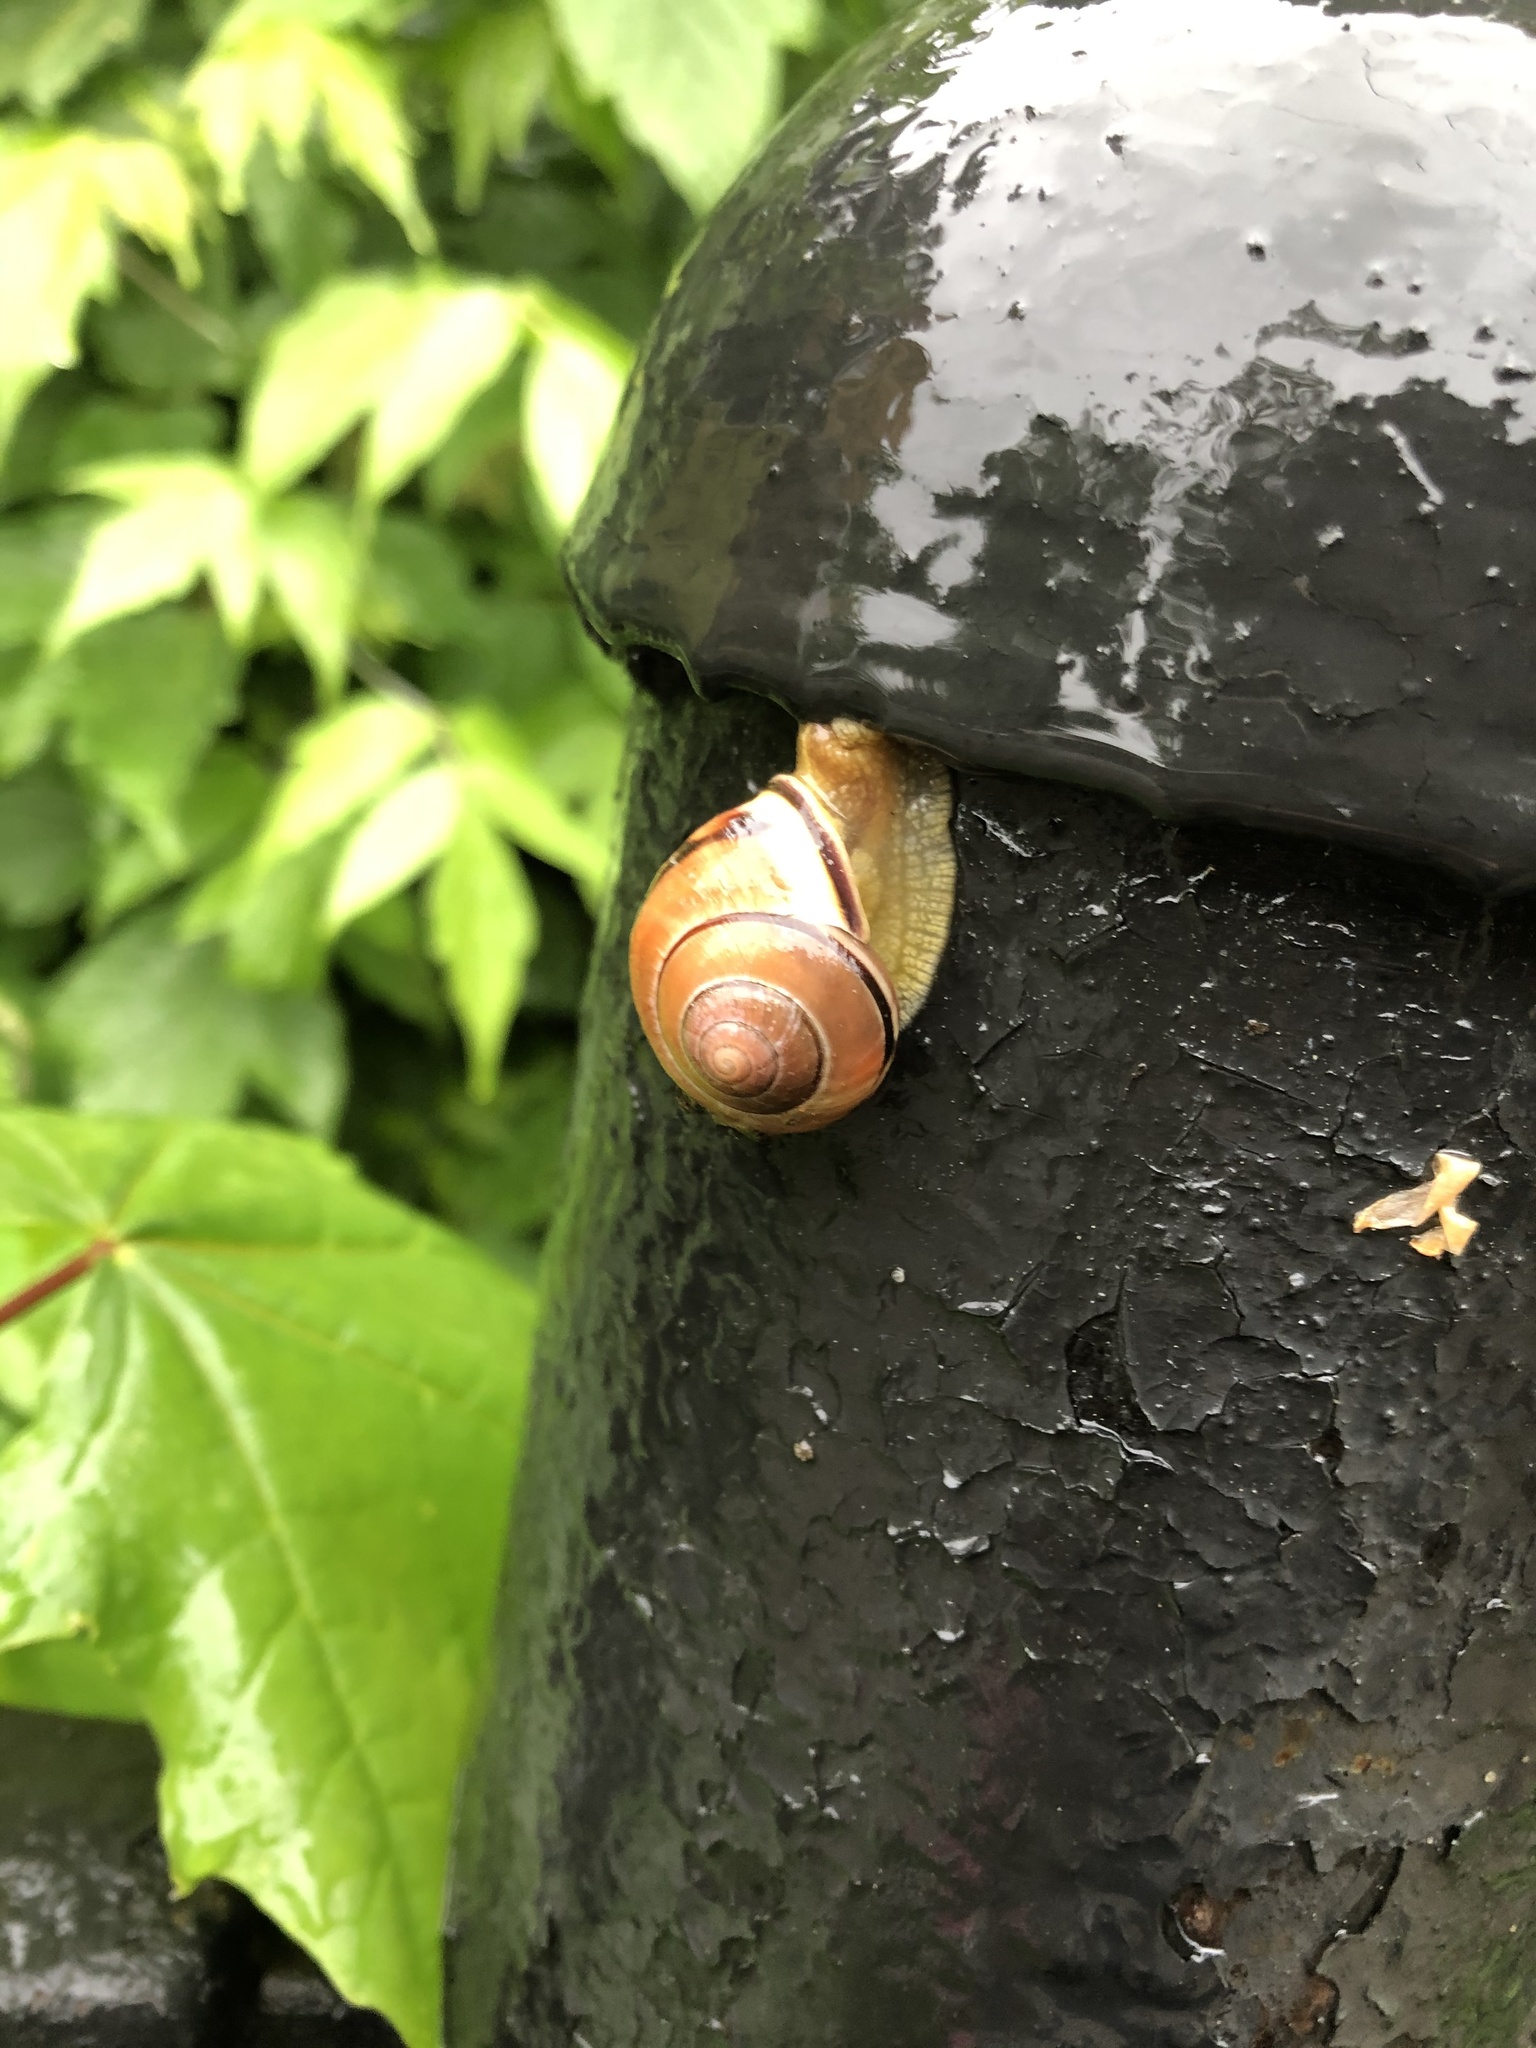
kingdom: Animalia
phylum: Mollusca
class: Gastropoda
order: Stylommatophora
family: Helicidae
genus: Cepaea
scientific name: Cepaea nemoralis
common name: Grovesnail
